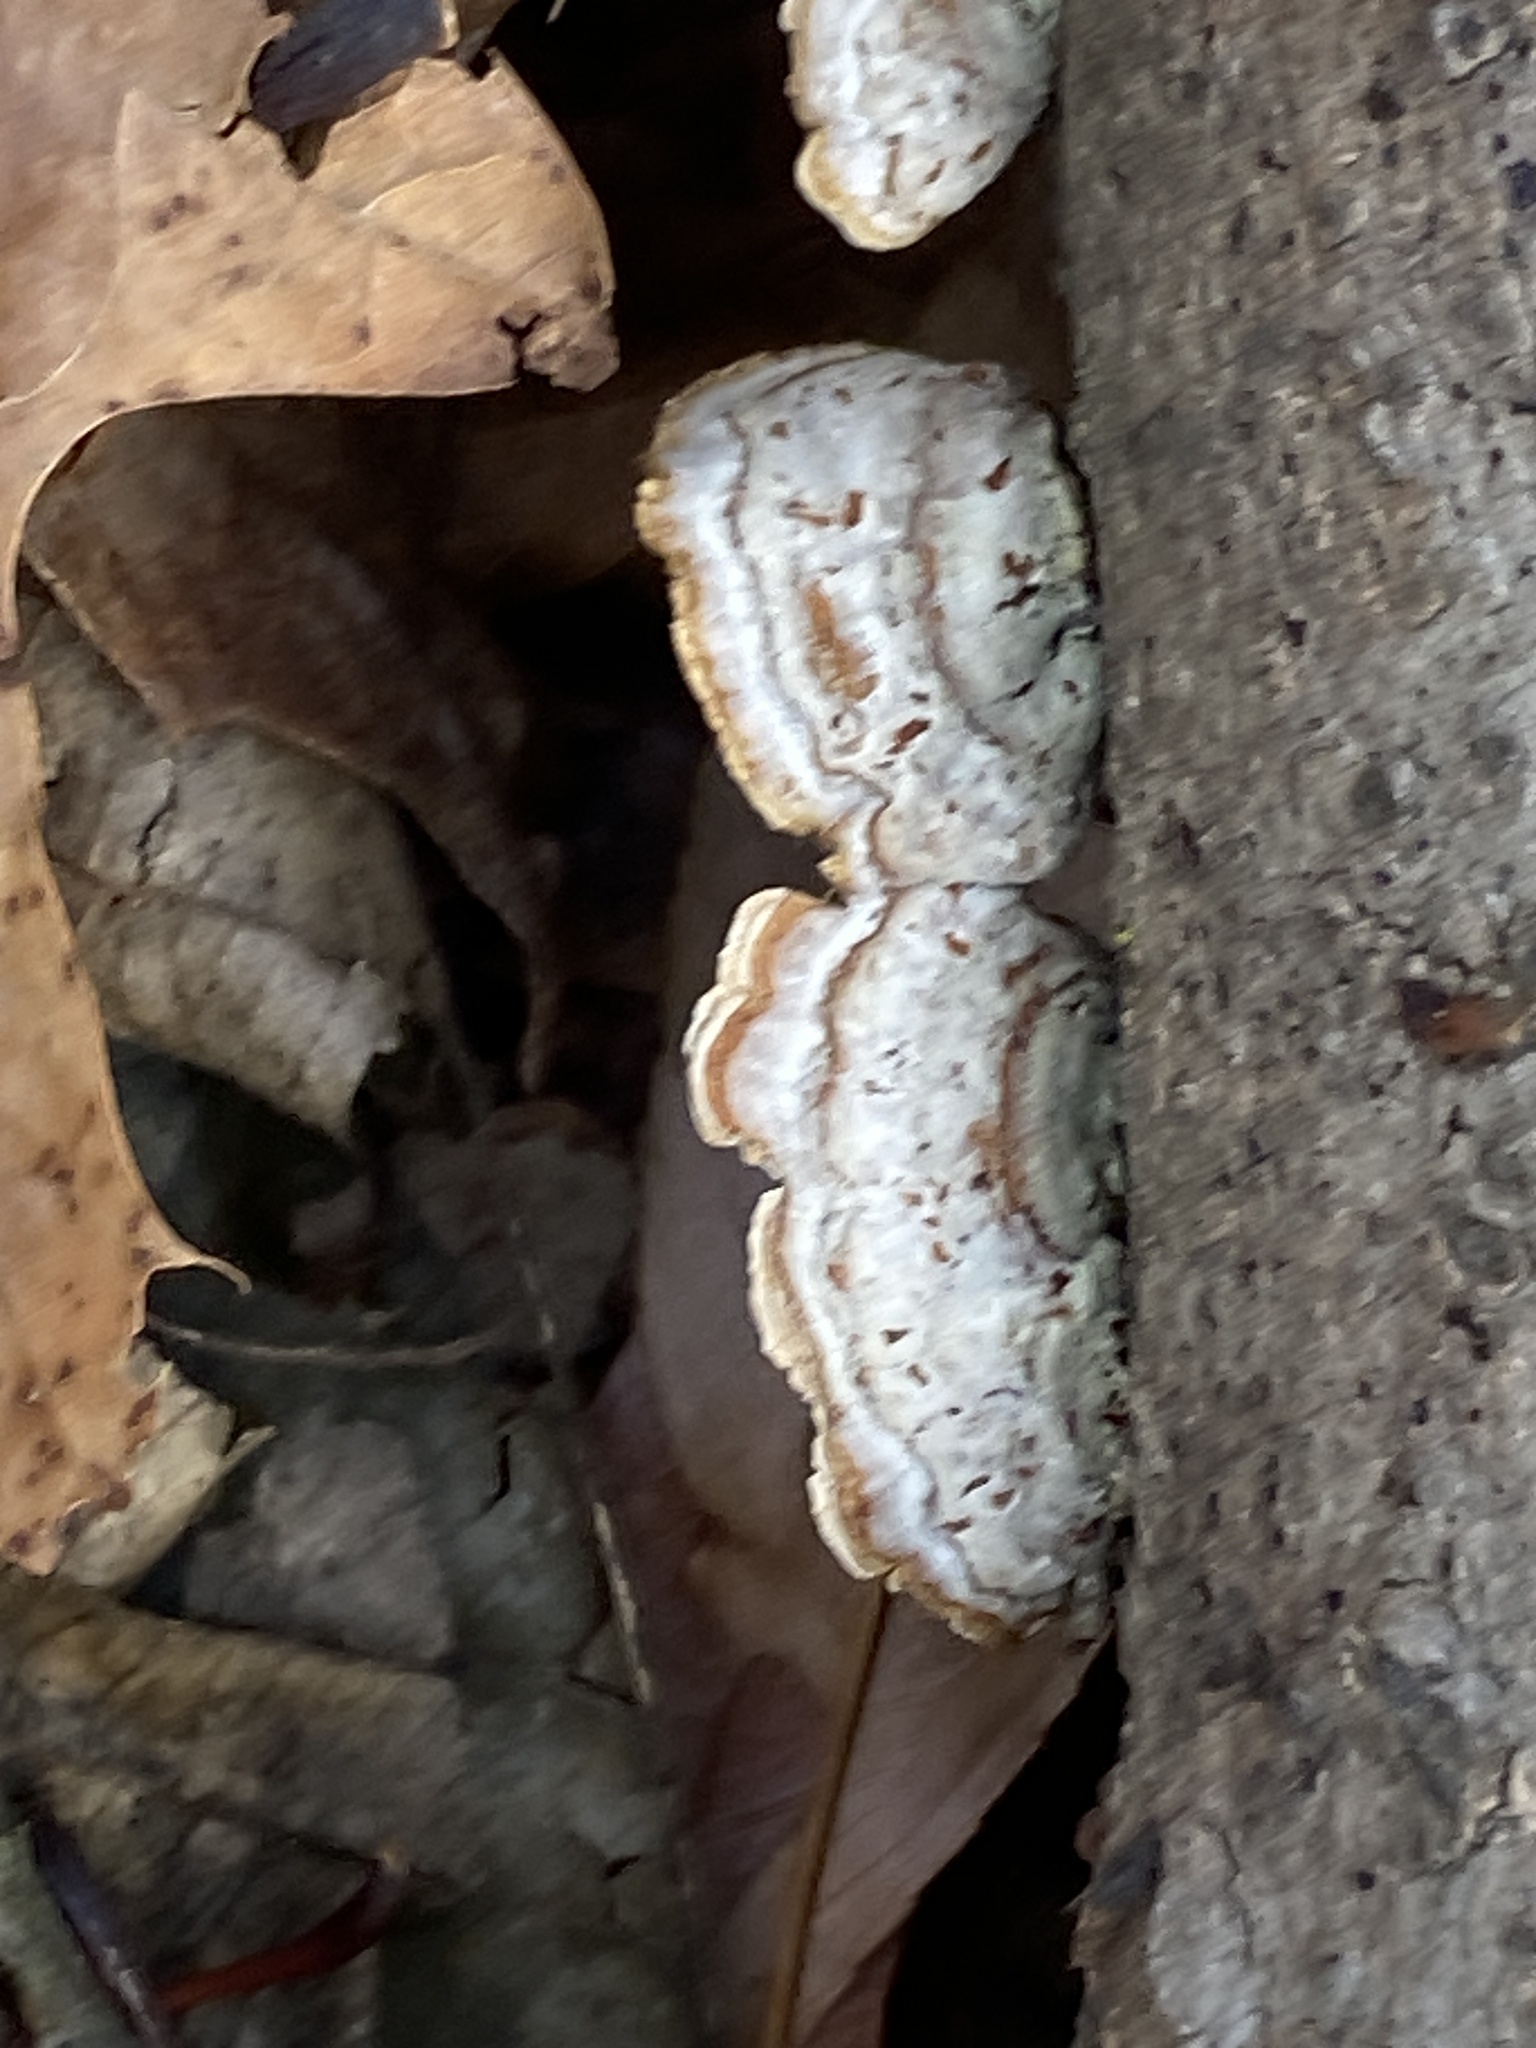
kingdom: Fungi
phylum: Basidiomycota
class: Agaricomycetes
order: Russulales
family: Stereaceae
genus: Stereum
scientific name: Stereum lobatum
